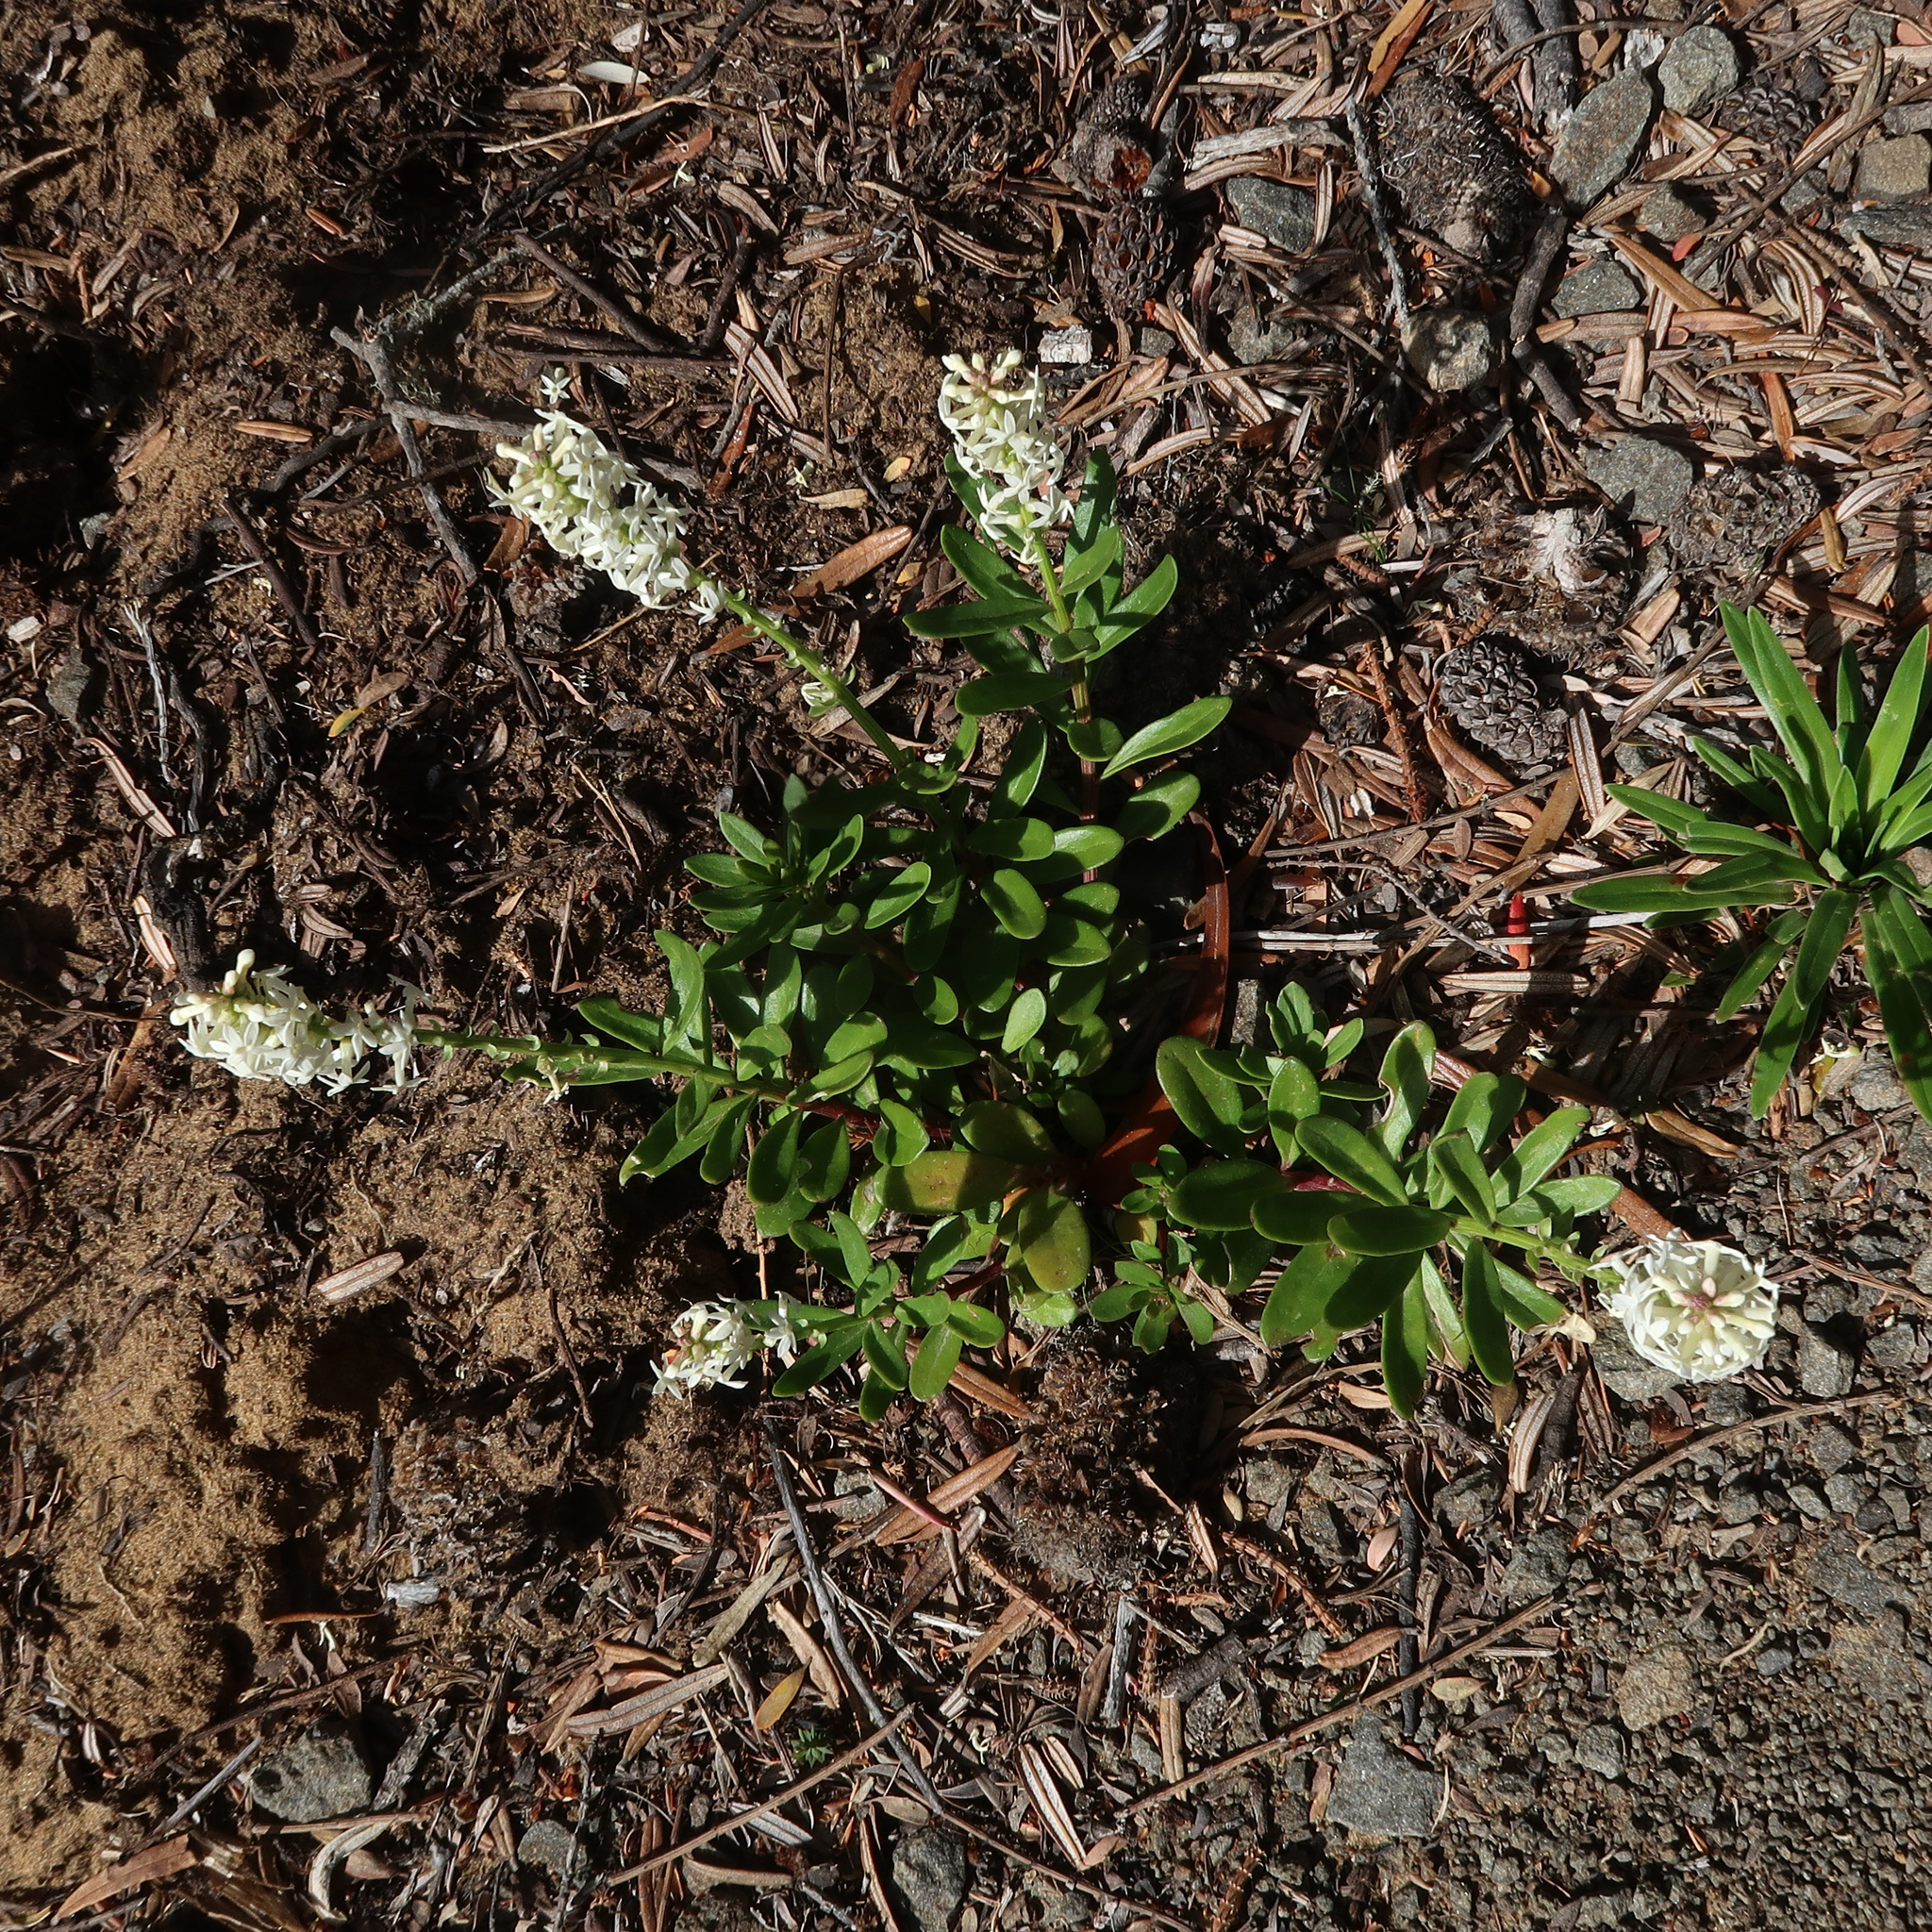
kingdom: Plantae
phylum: Tracheophyta
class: Magnoliopsida
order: Celastrales
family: Celastraceae
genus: Stackhousia
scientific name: Stackhousia monogyna
